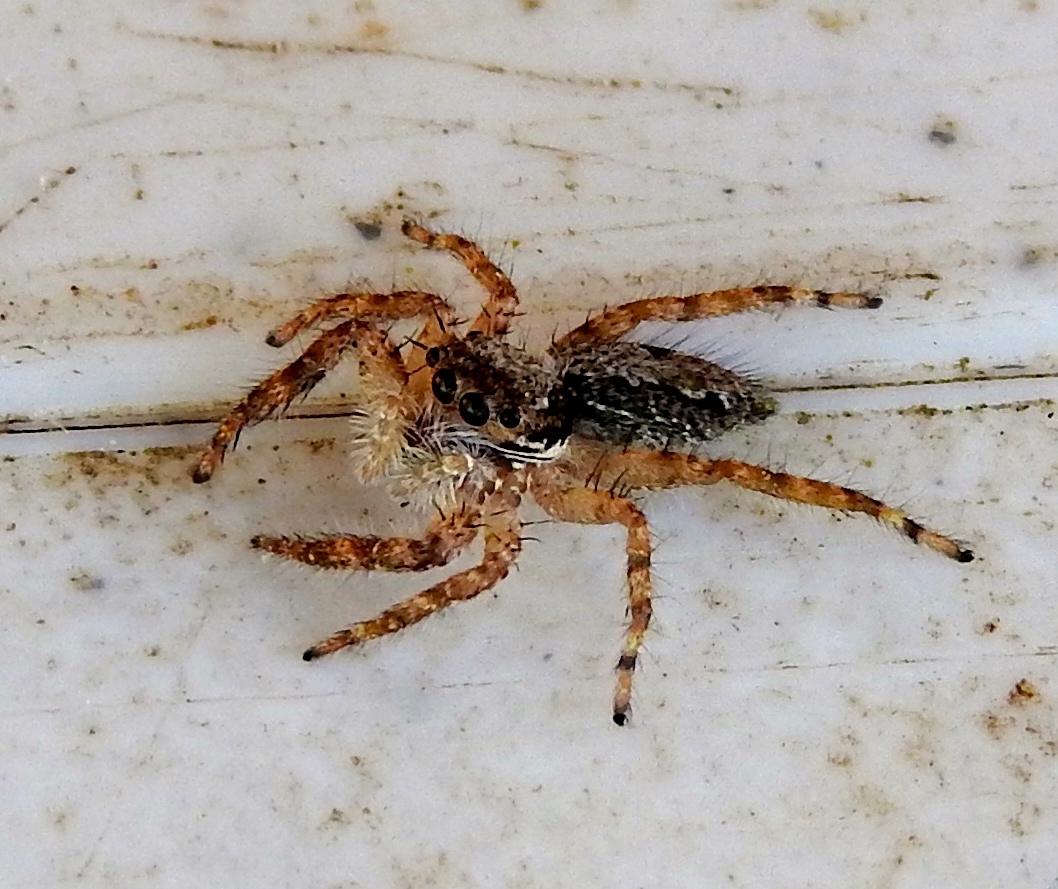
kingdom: Animalia
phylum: Arthropoda
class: Arachnida
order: Araneae
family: Salticidae
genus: Balmaceda
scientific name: Balmaceda
